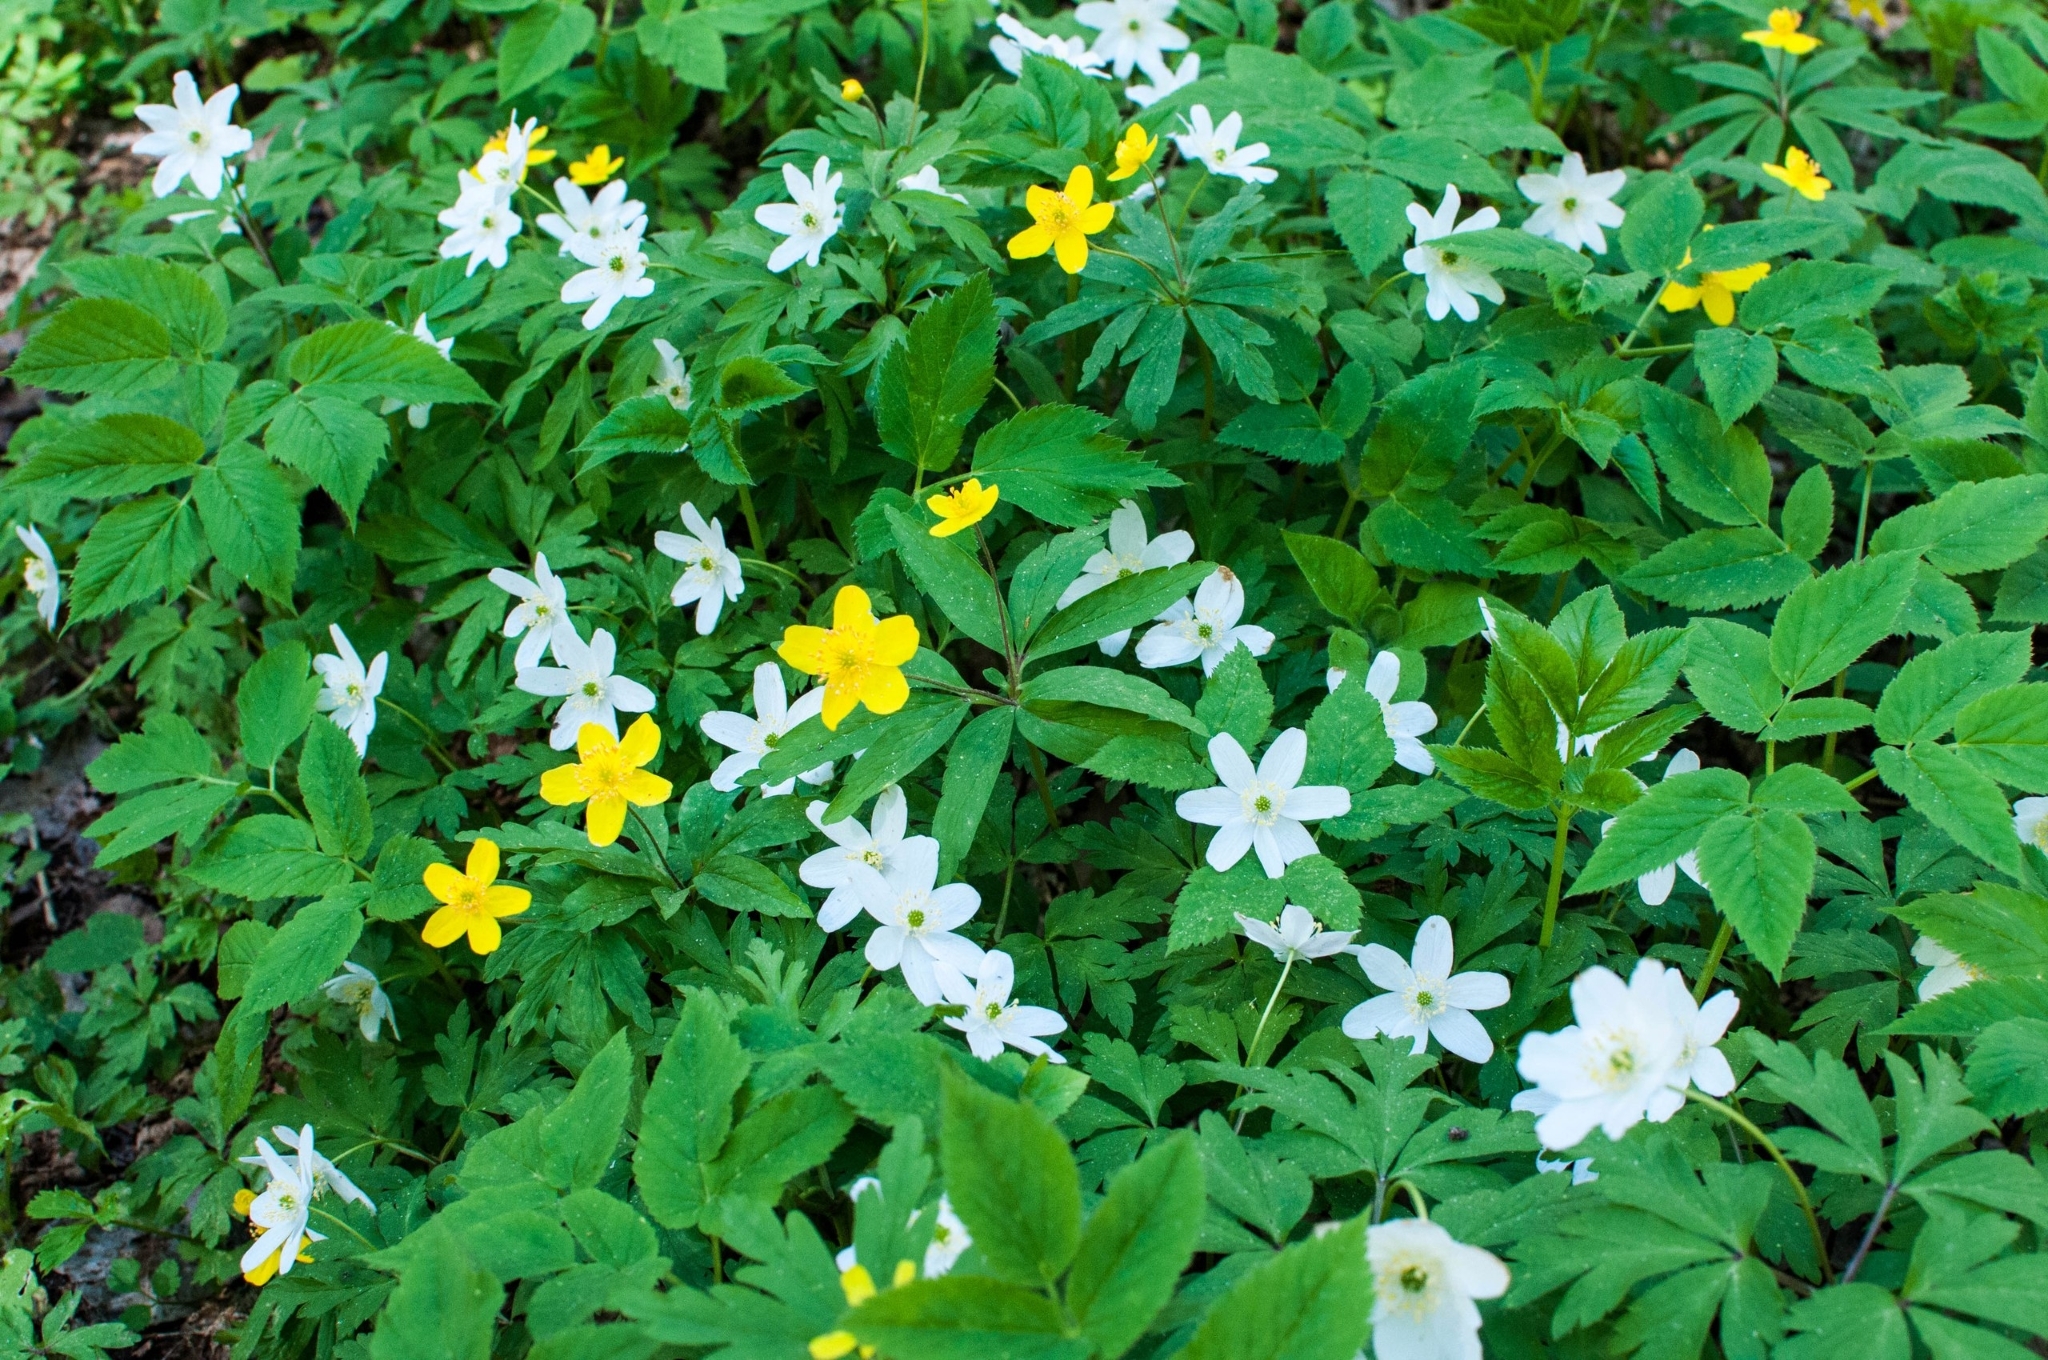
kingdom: Plantae
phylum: Tracheophyta
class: Magnoliopsida
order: Ranunculales
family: Ranunculaceae
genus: Anemone
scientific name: Anemone nemorosa
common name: Wood anemone
